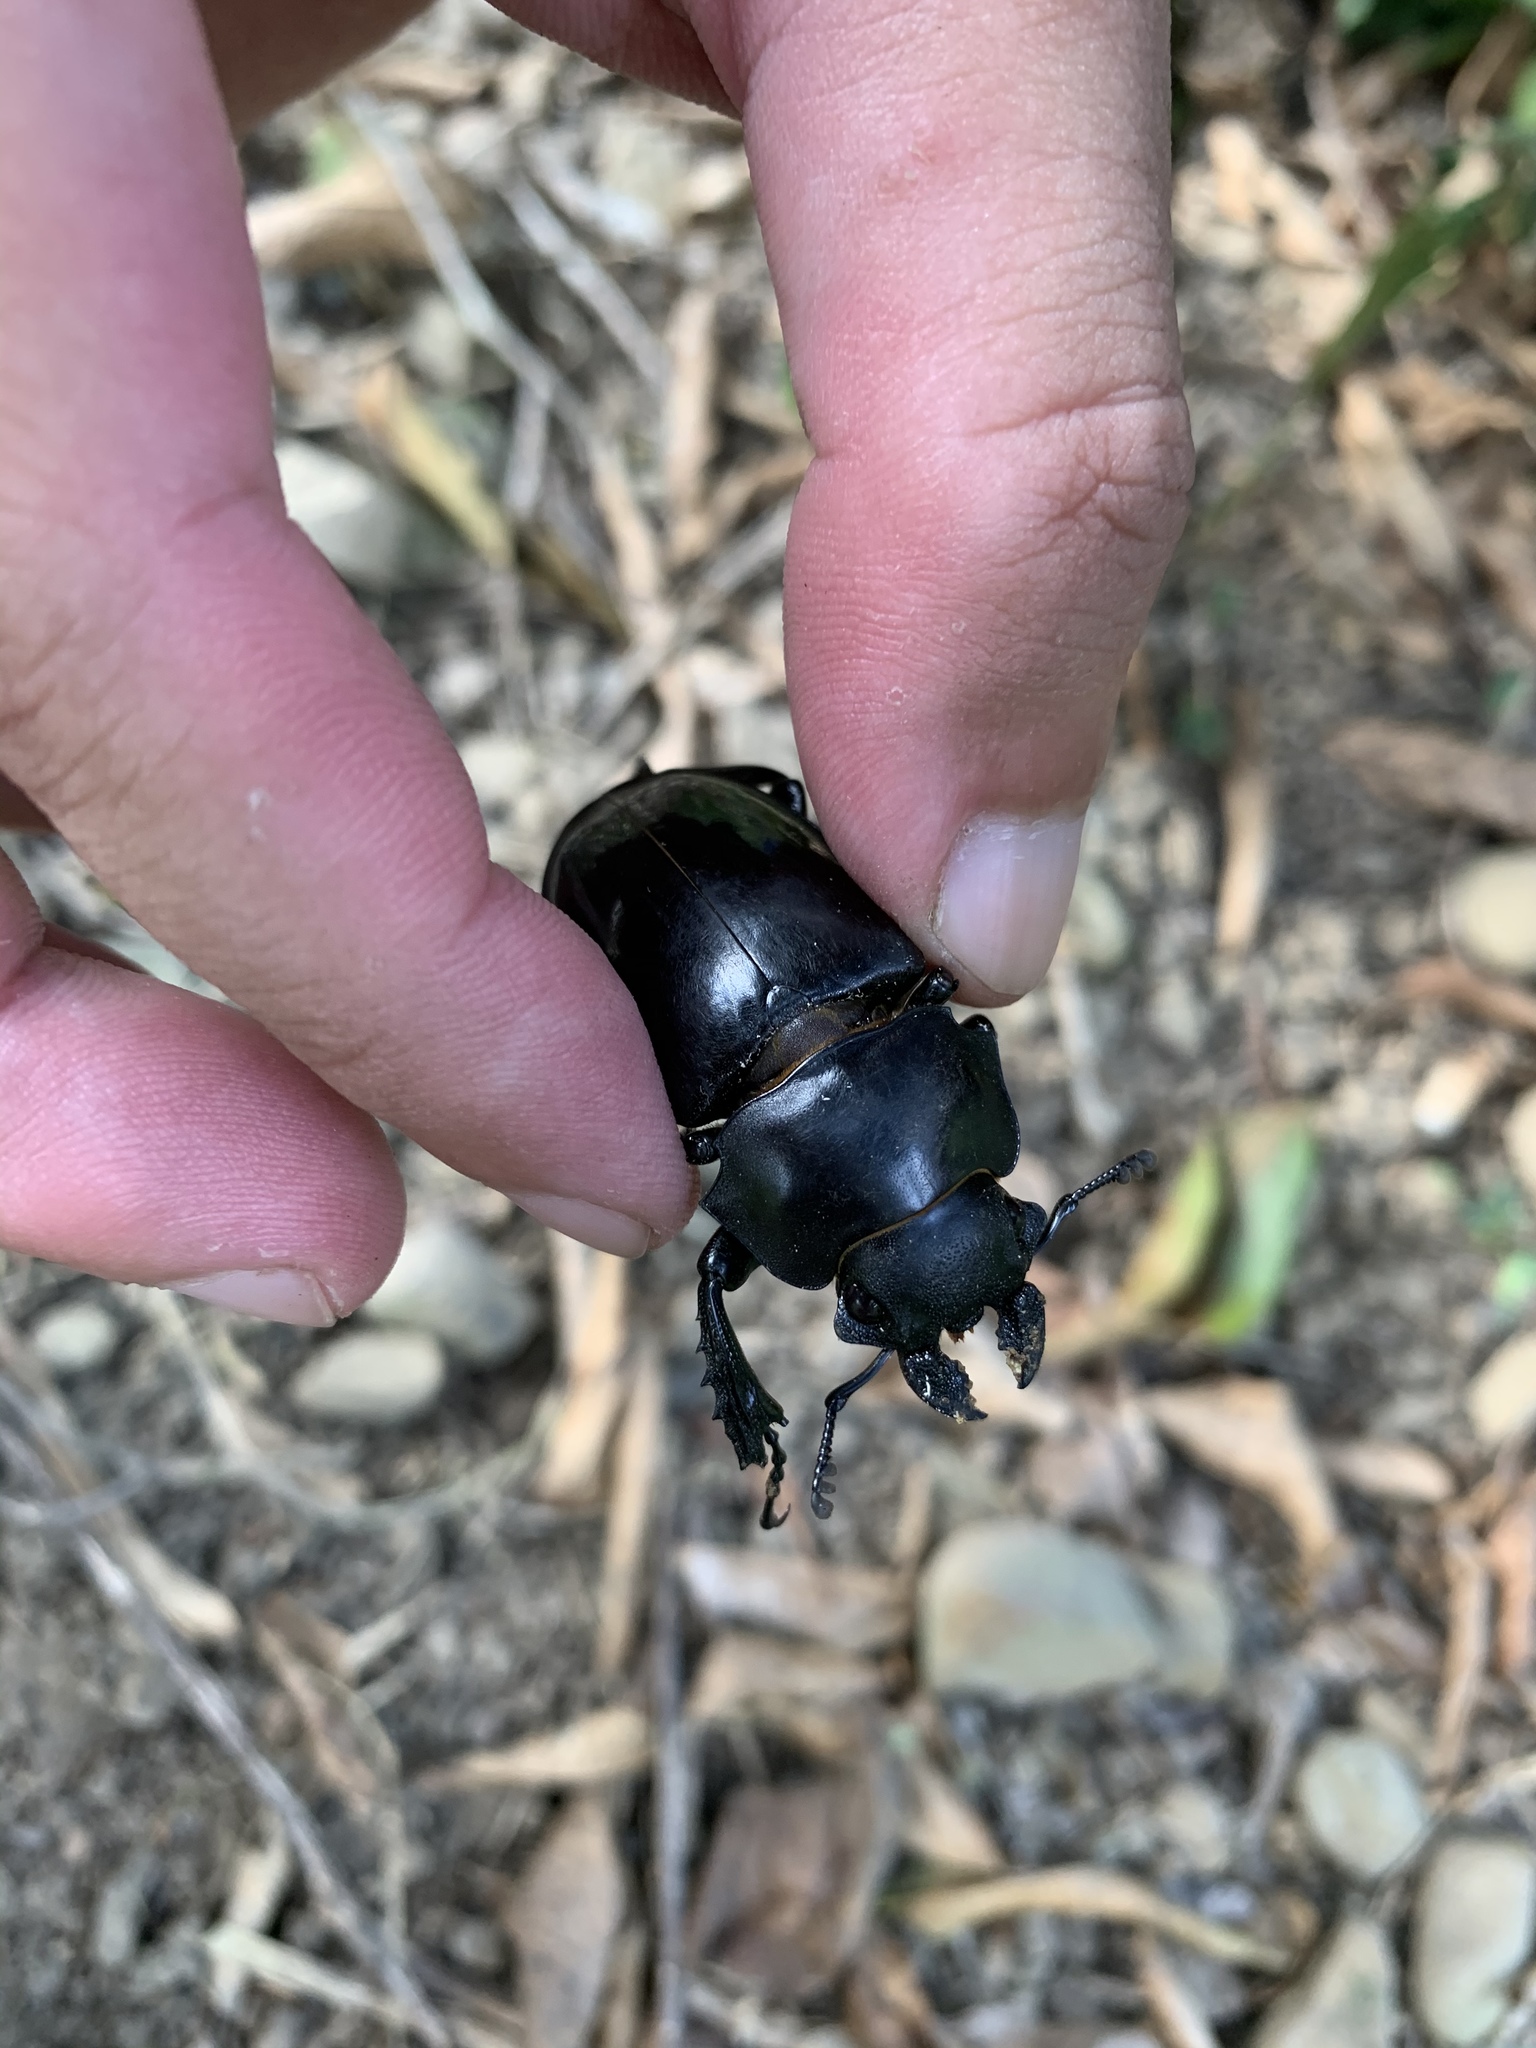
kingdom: Animalia
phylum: Arthropoda
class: Insecta
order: Coleoptera
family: Lucanidae
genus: Odontolabis
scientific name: Odontolabis siva
